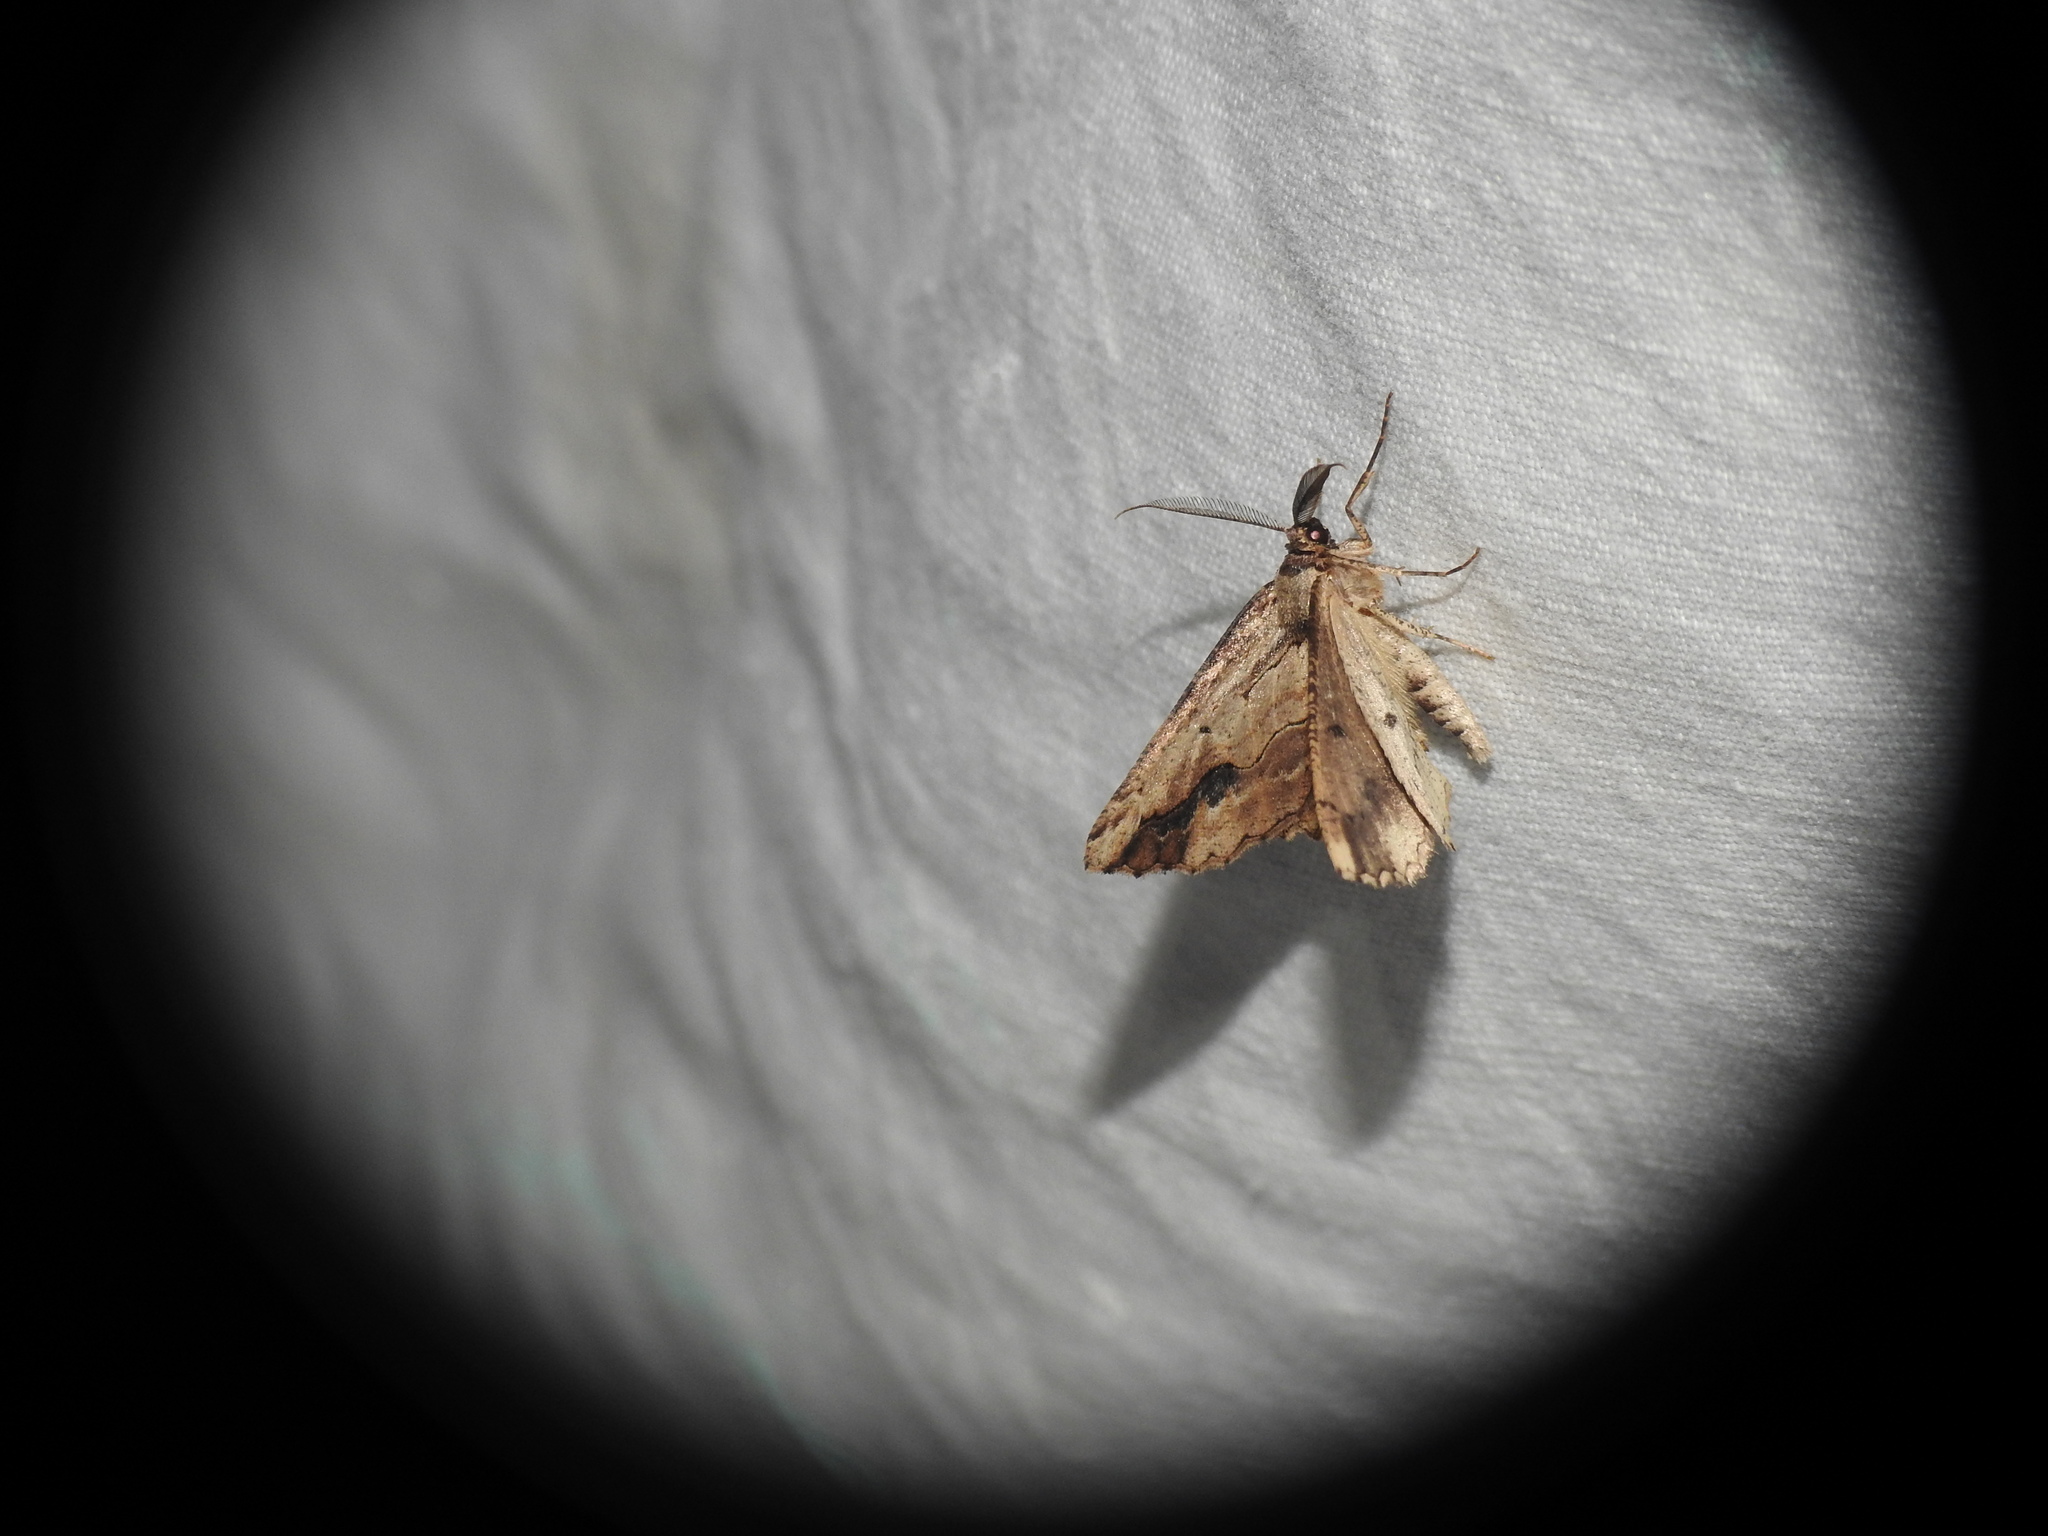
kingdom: Animalia
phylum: Arthropoda
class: Insecta
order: Lepidoptera
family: Geometridae
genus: Menophra
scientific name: Menophra abruptaria
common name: Waved umber
